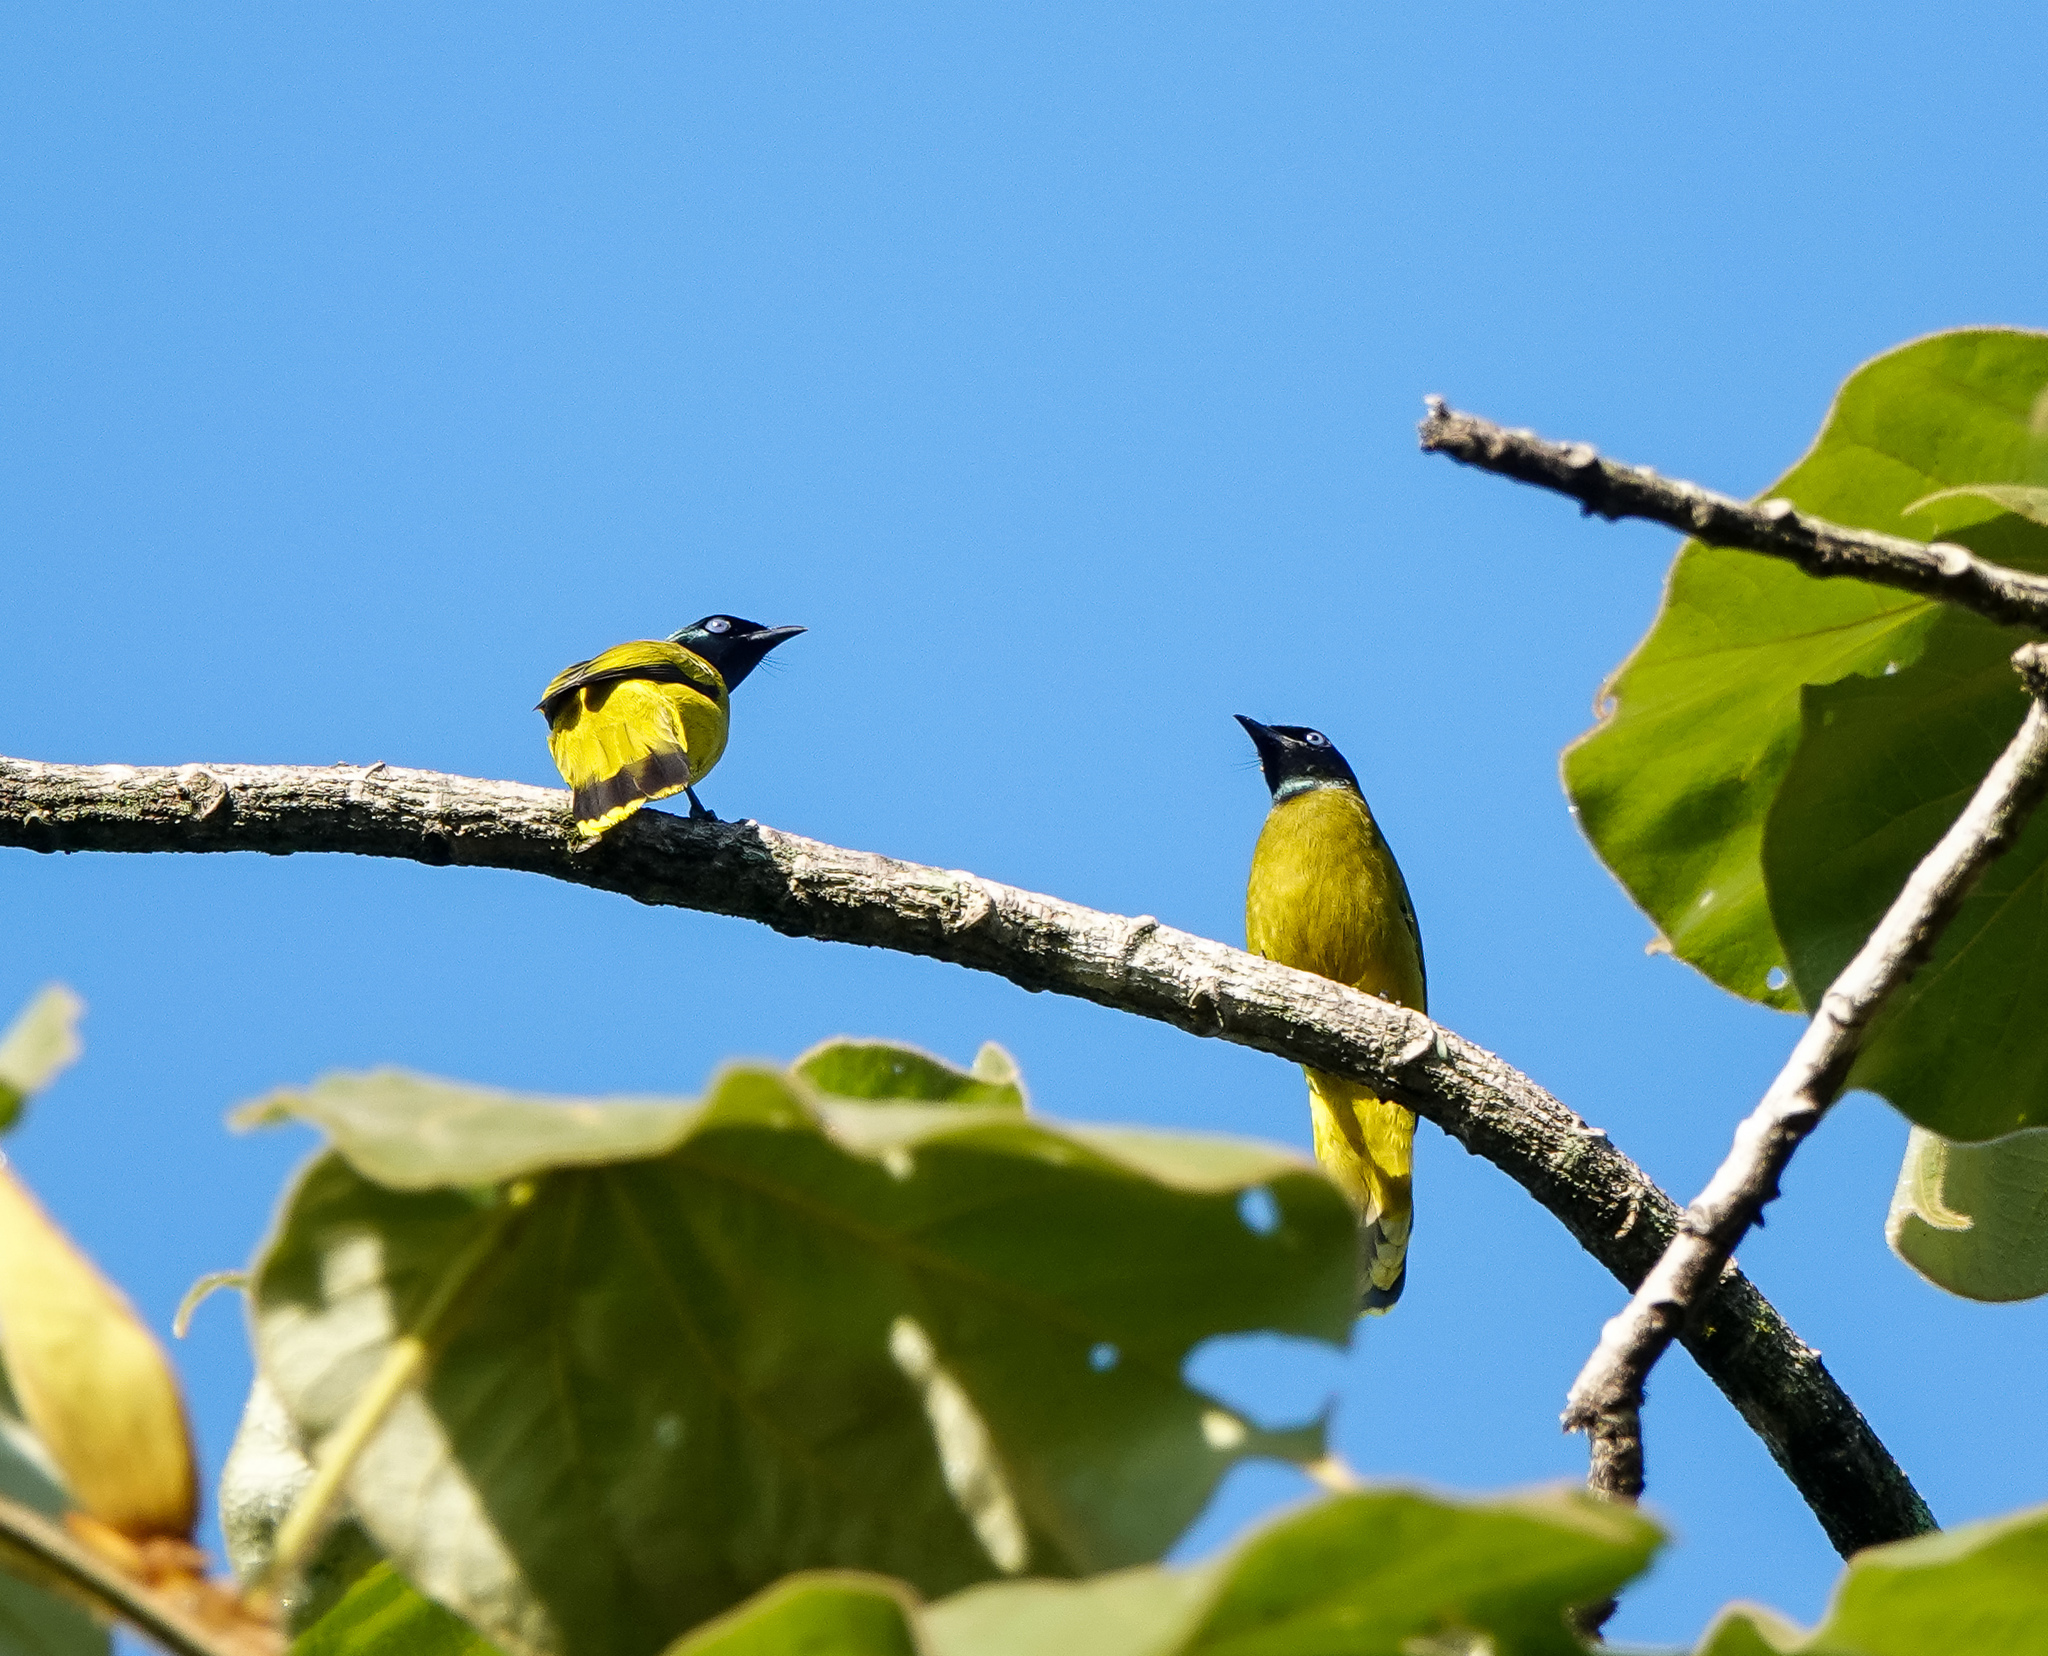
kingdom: Animalia
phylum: Chordata
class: Aves
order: Passeriformes
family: Pycnonotidae
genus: Microtarsus
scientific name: Microtarsus
